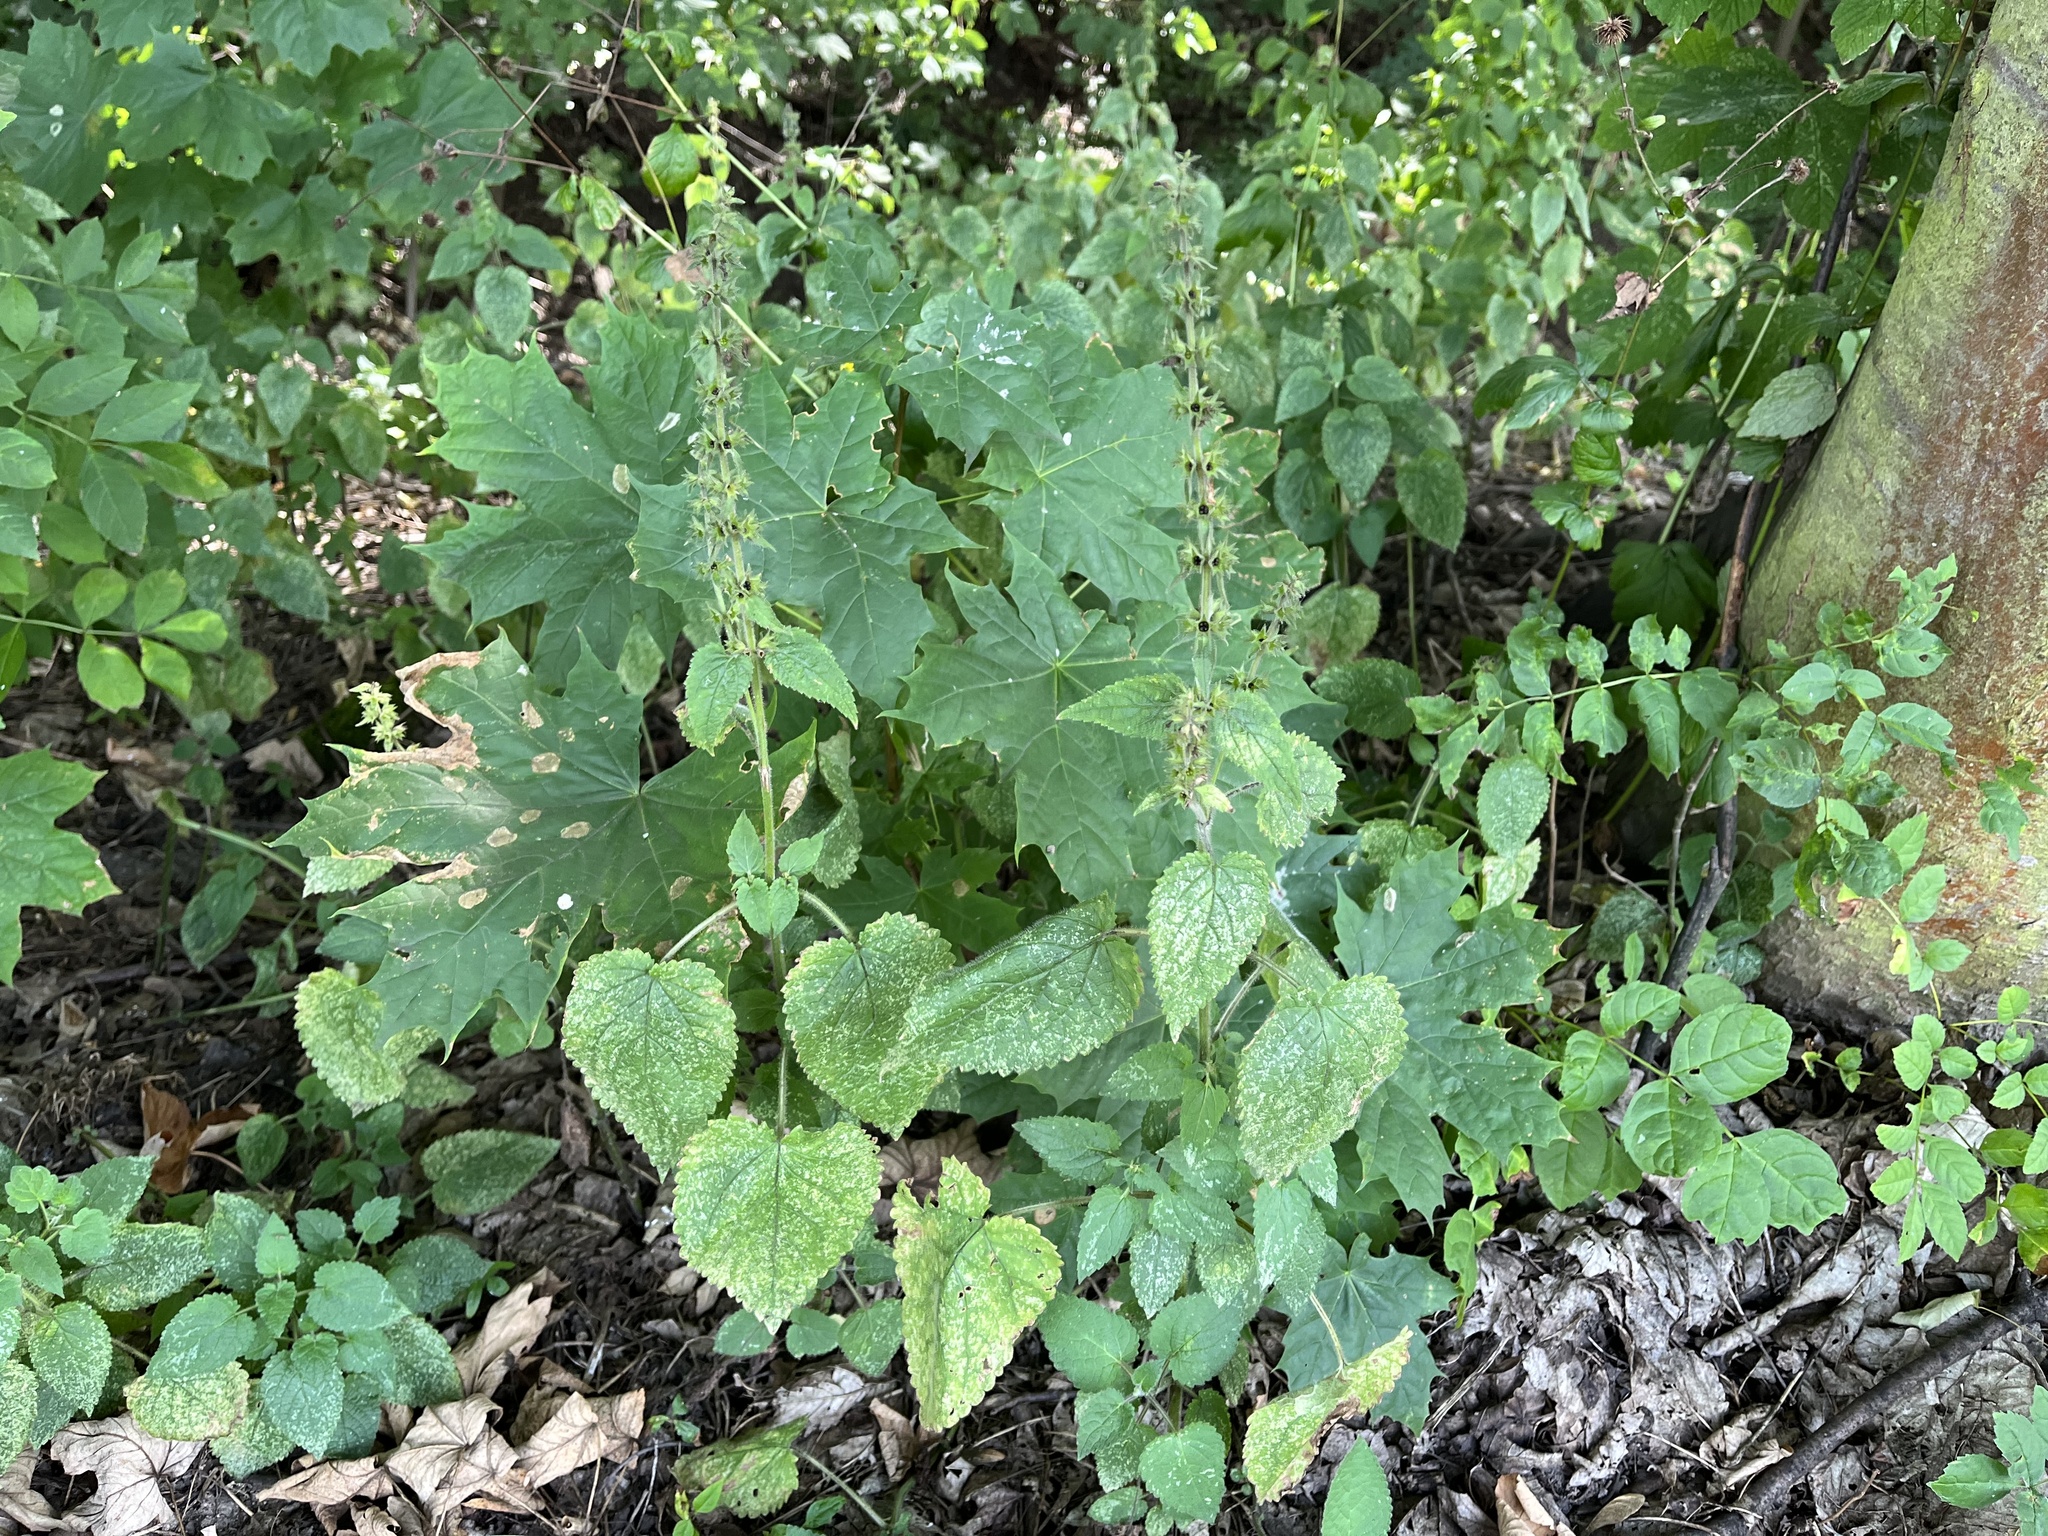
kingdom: Plantae
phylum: Tracheophyta
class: Magnoliopsida
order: Lamiales
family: Lamiaceae
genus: Stachys
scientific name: Stachys sylvatica
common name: Hedge woundwort
